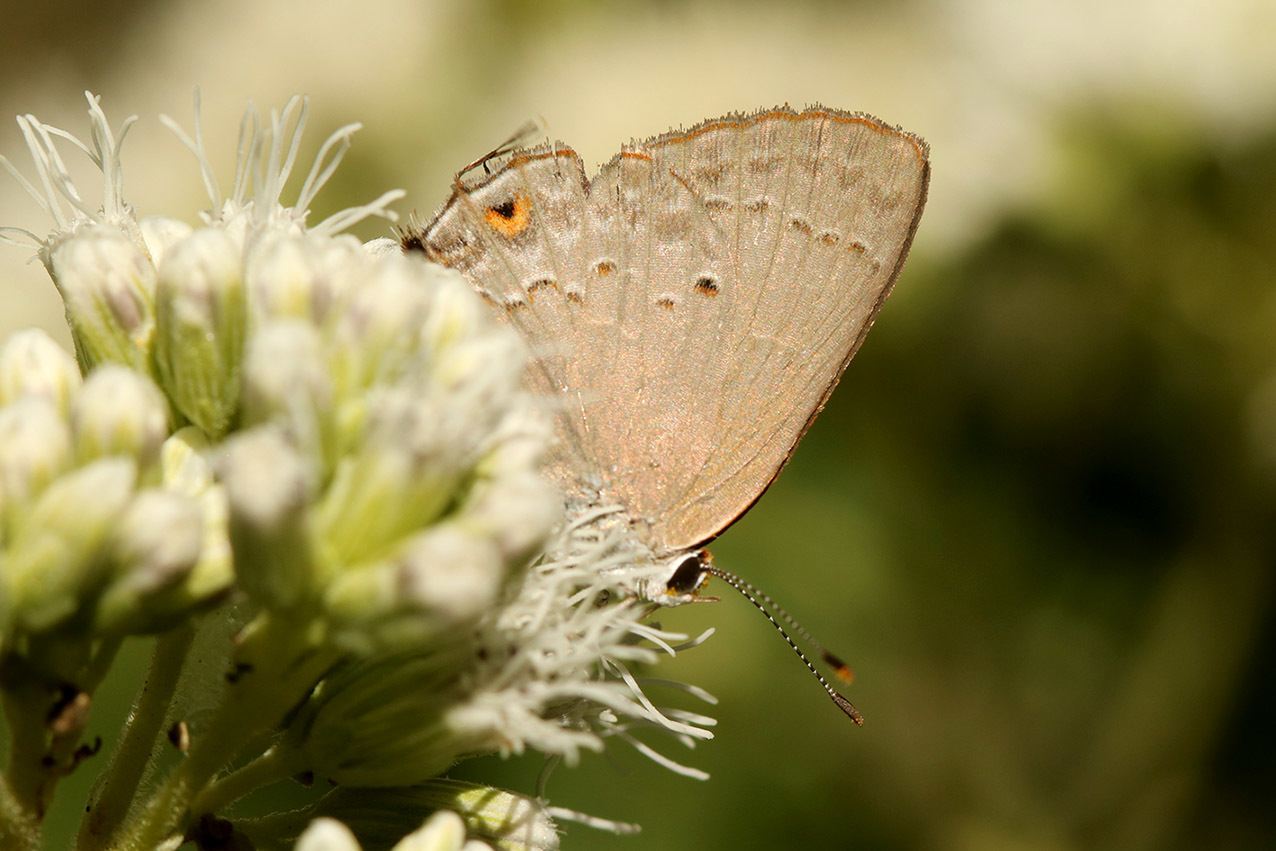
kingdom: Animalia
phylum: Arthropoda
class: Insecta
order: Lepidoptera
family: Lycaenidae
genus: Thecla
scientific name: Thecla rufofusca
